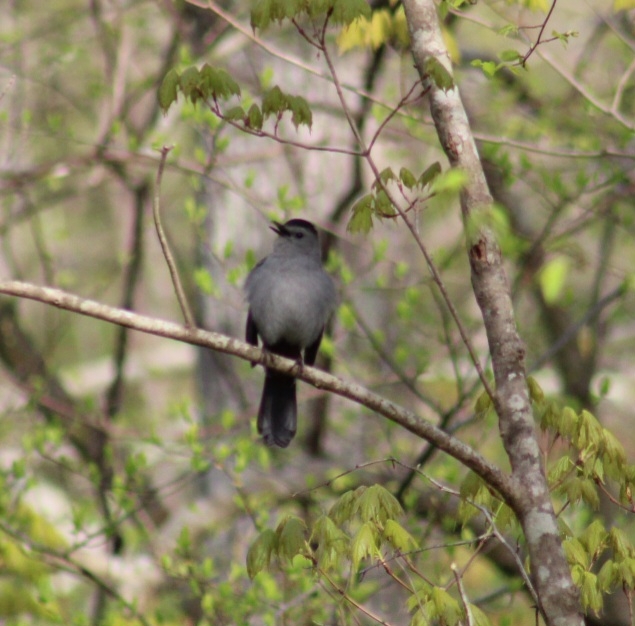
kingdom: Animalia
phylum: Chordata
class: Aves
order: Passeriformes
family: Mimidae
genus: Dumetella
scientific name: Dumetella carolinensis
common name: Gray catbird
